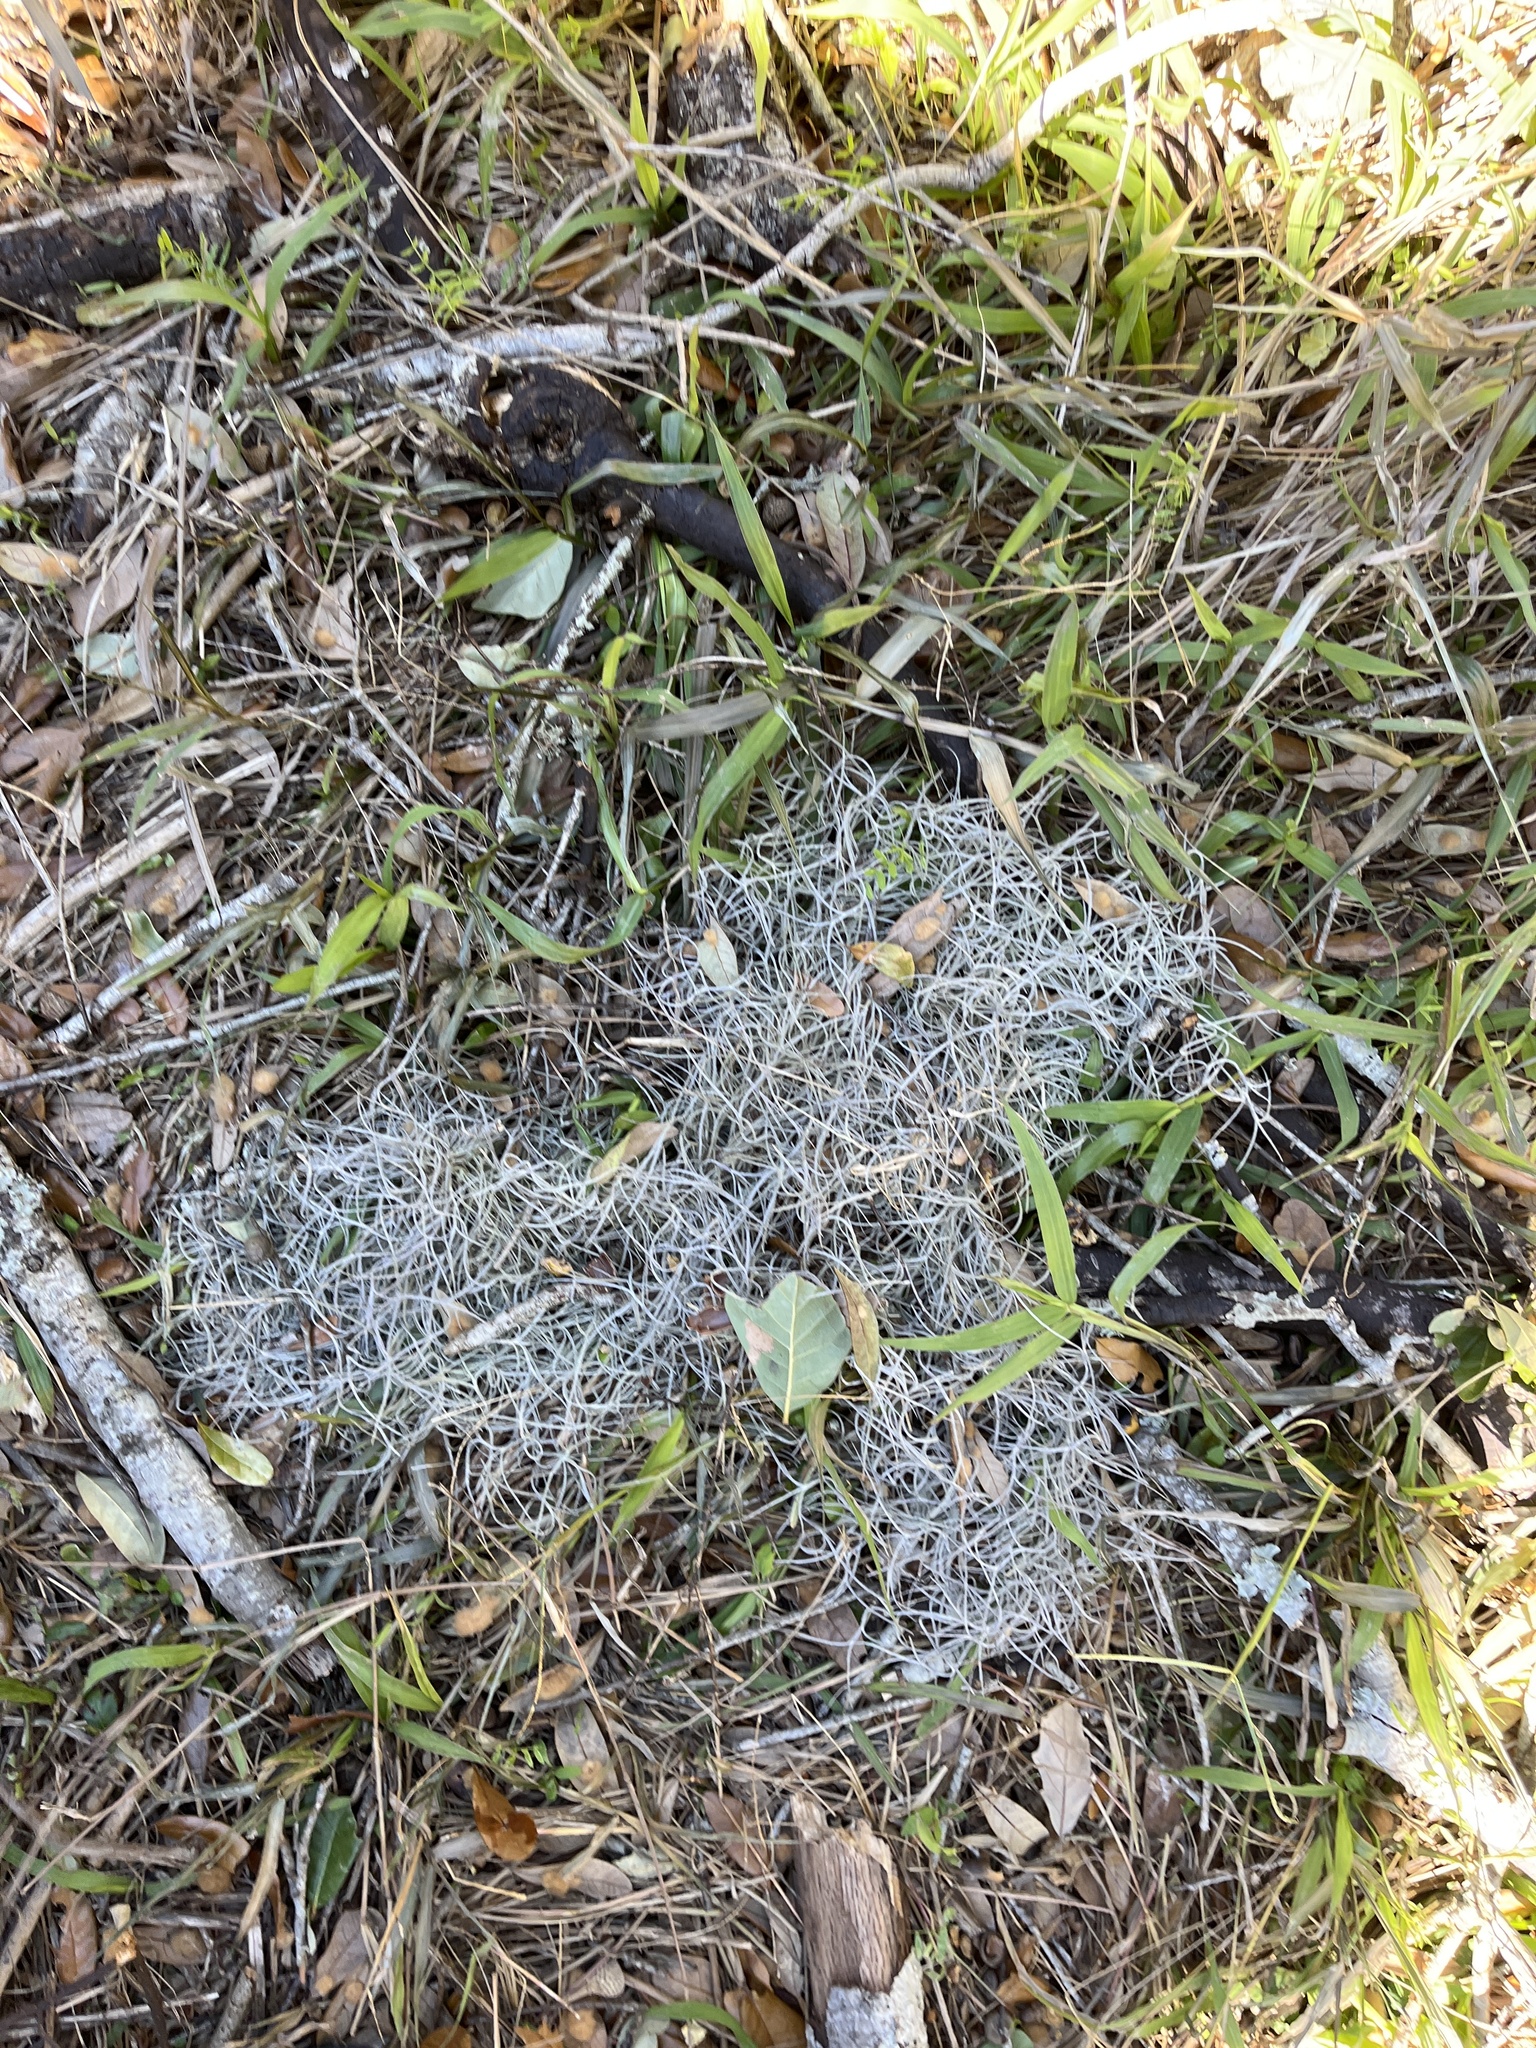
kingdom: Plantae
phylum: Tracheophyta
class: Liliopsida
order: Poales
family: Bromeliaceae
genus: Tillandsia
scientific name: Tillandsia usneoides
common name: Spanish moss
